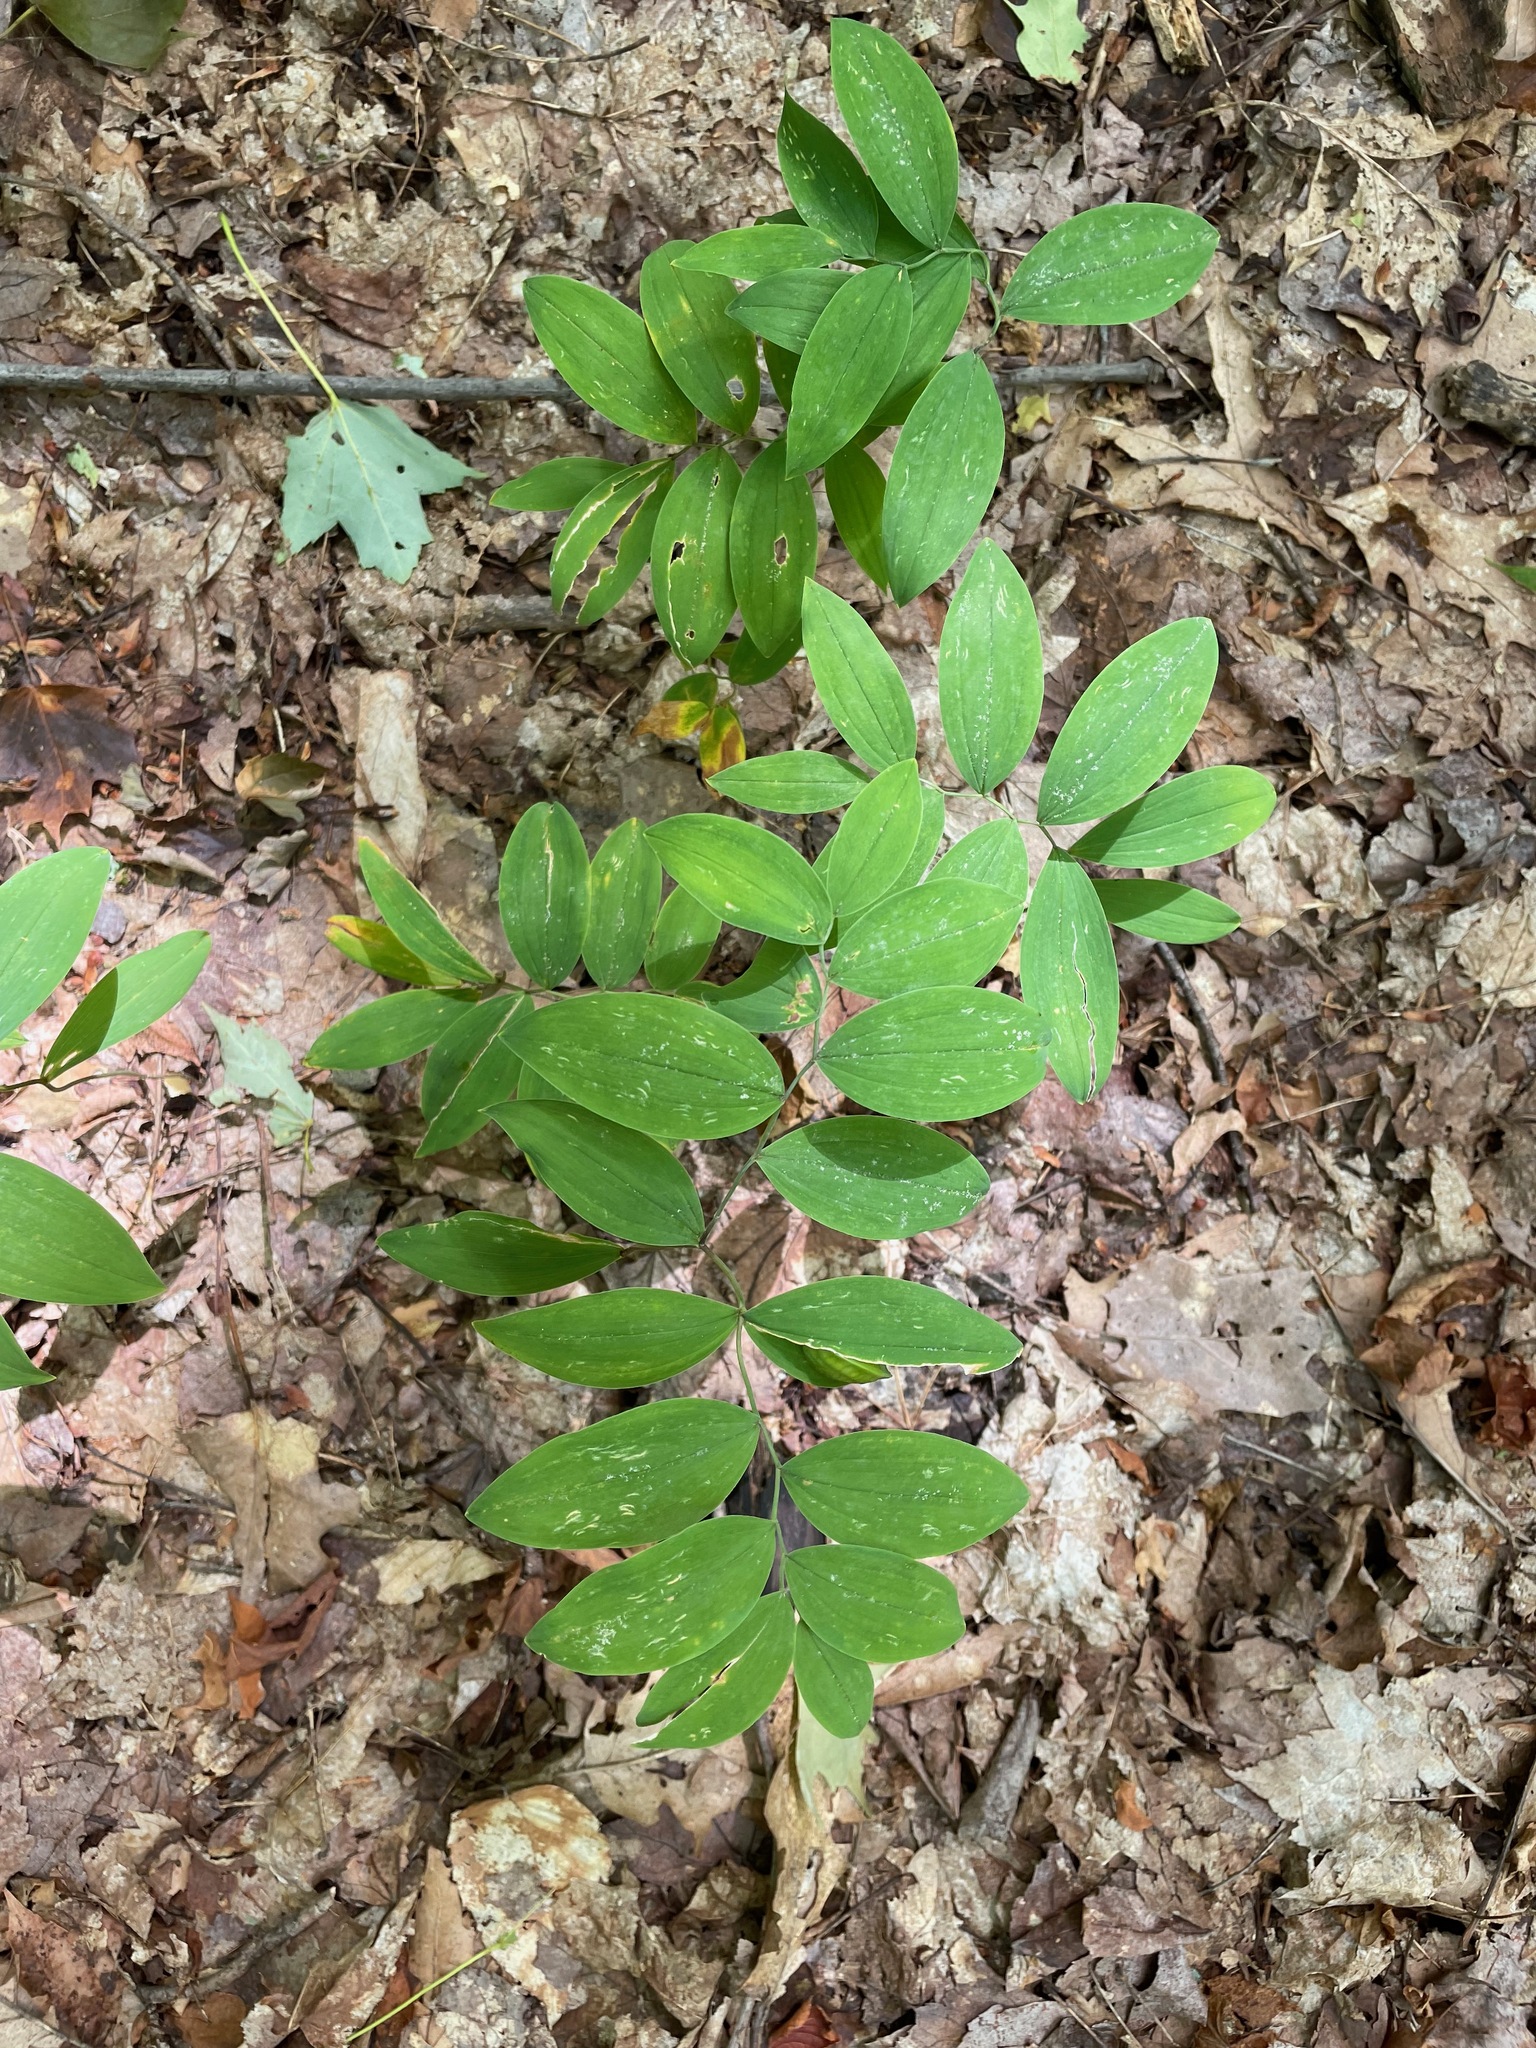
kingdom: Plantae
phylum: Tracheophyta
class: Liliopsida
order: Liliales
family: Colchicaceae
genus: Uvularia
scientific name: Uvularia sessilifolia
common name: Straw-lily
